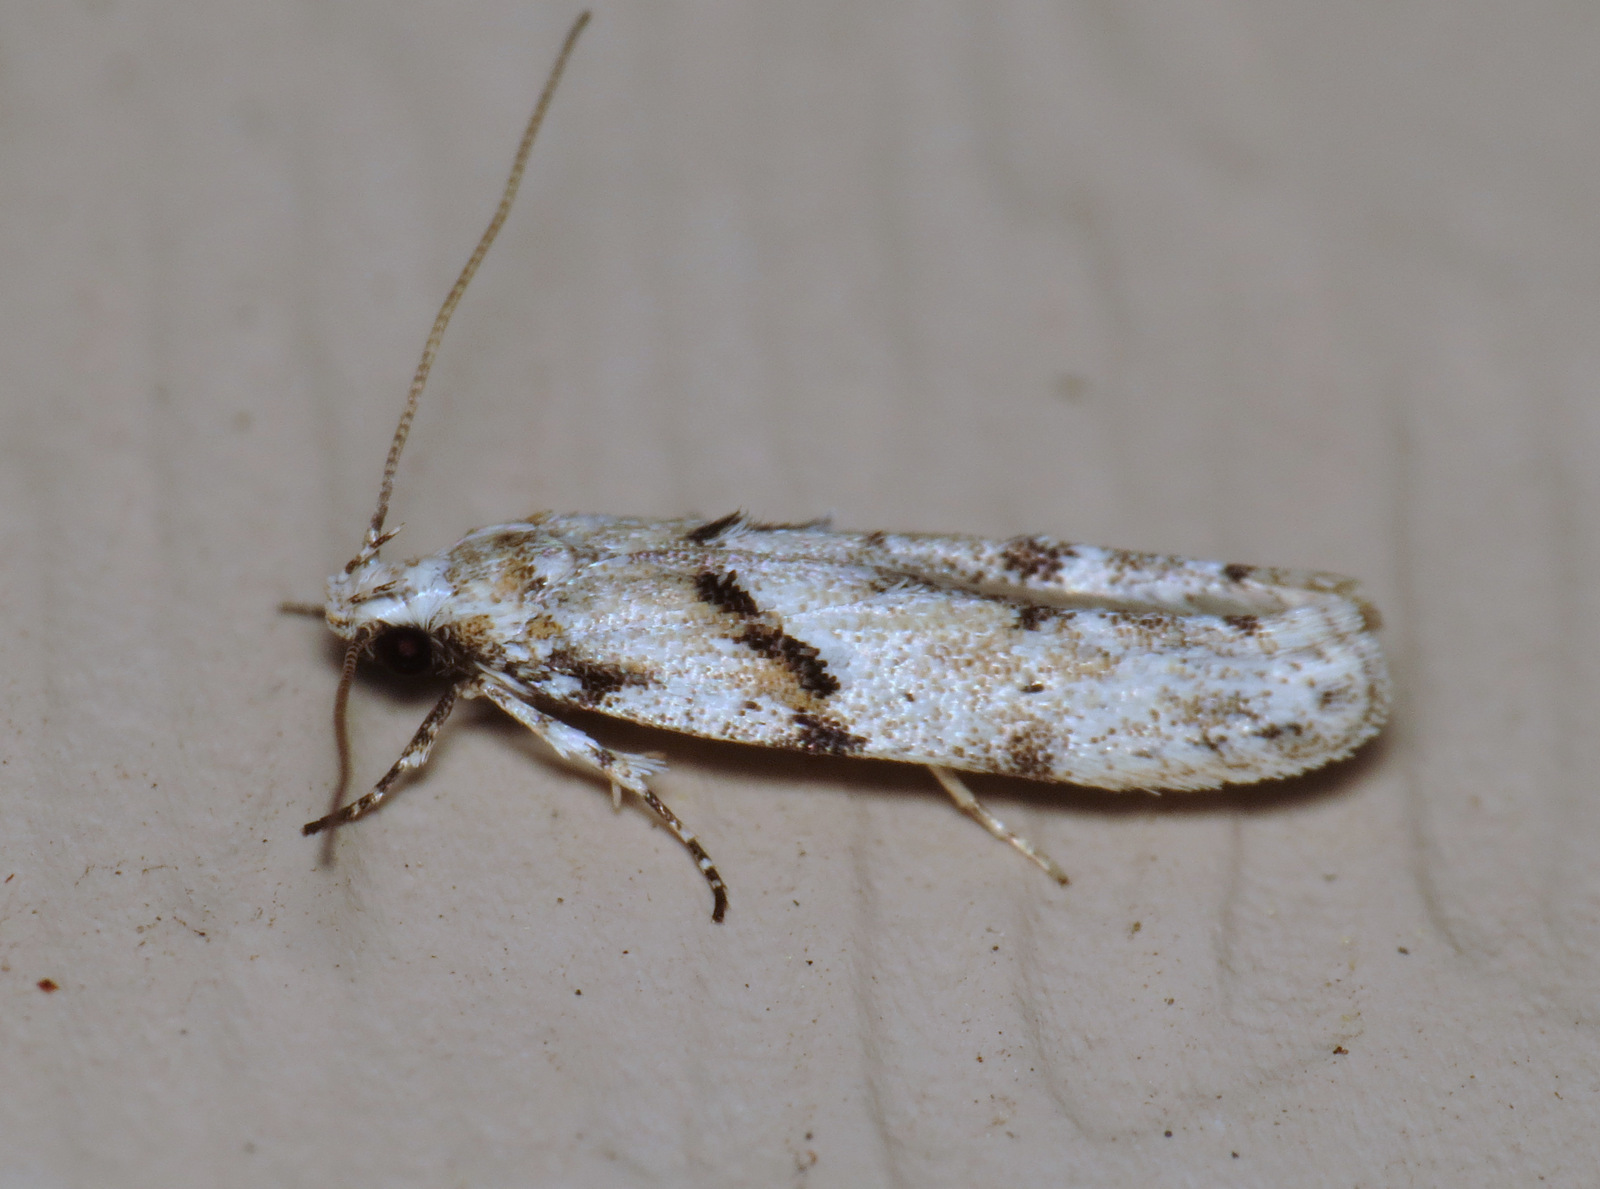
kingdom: Animalia
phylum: Arthropoda
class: Insecta
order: Lepidoptera
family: Gelechiidae
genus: Arogalea
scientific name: Arogalea cristifasciella
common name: White stripe-backed moth
